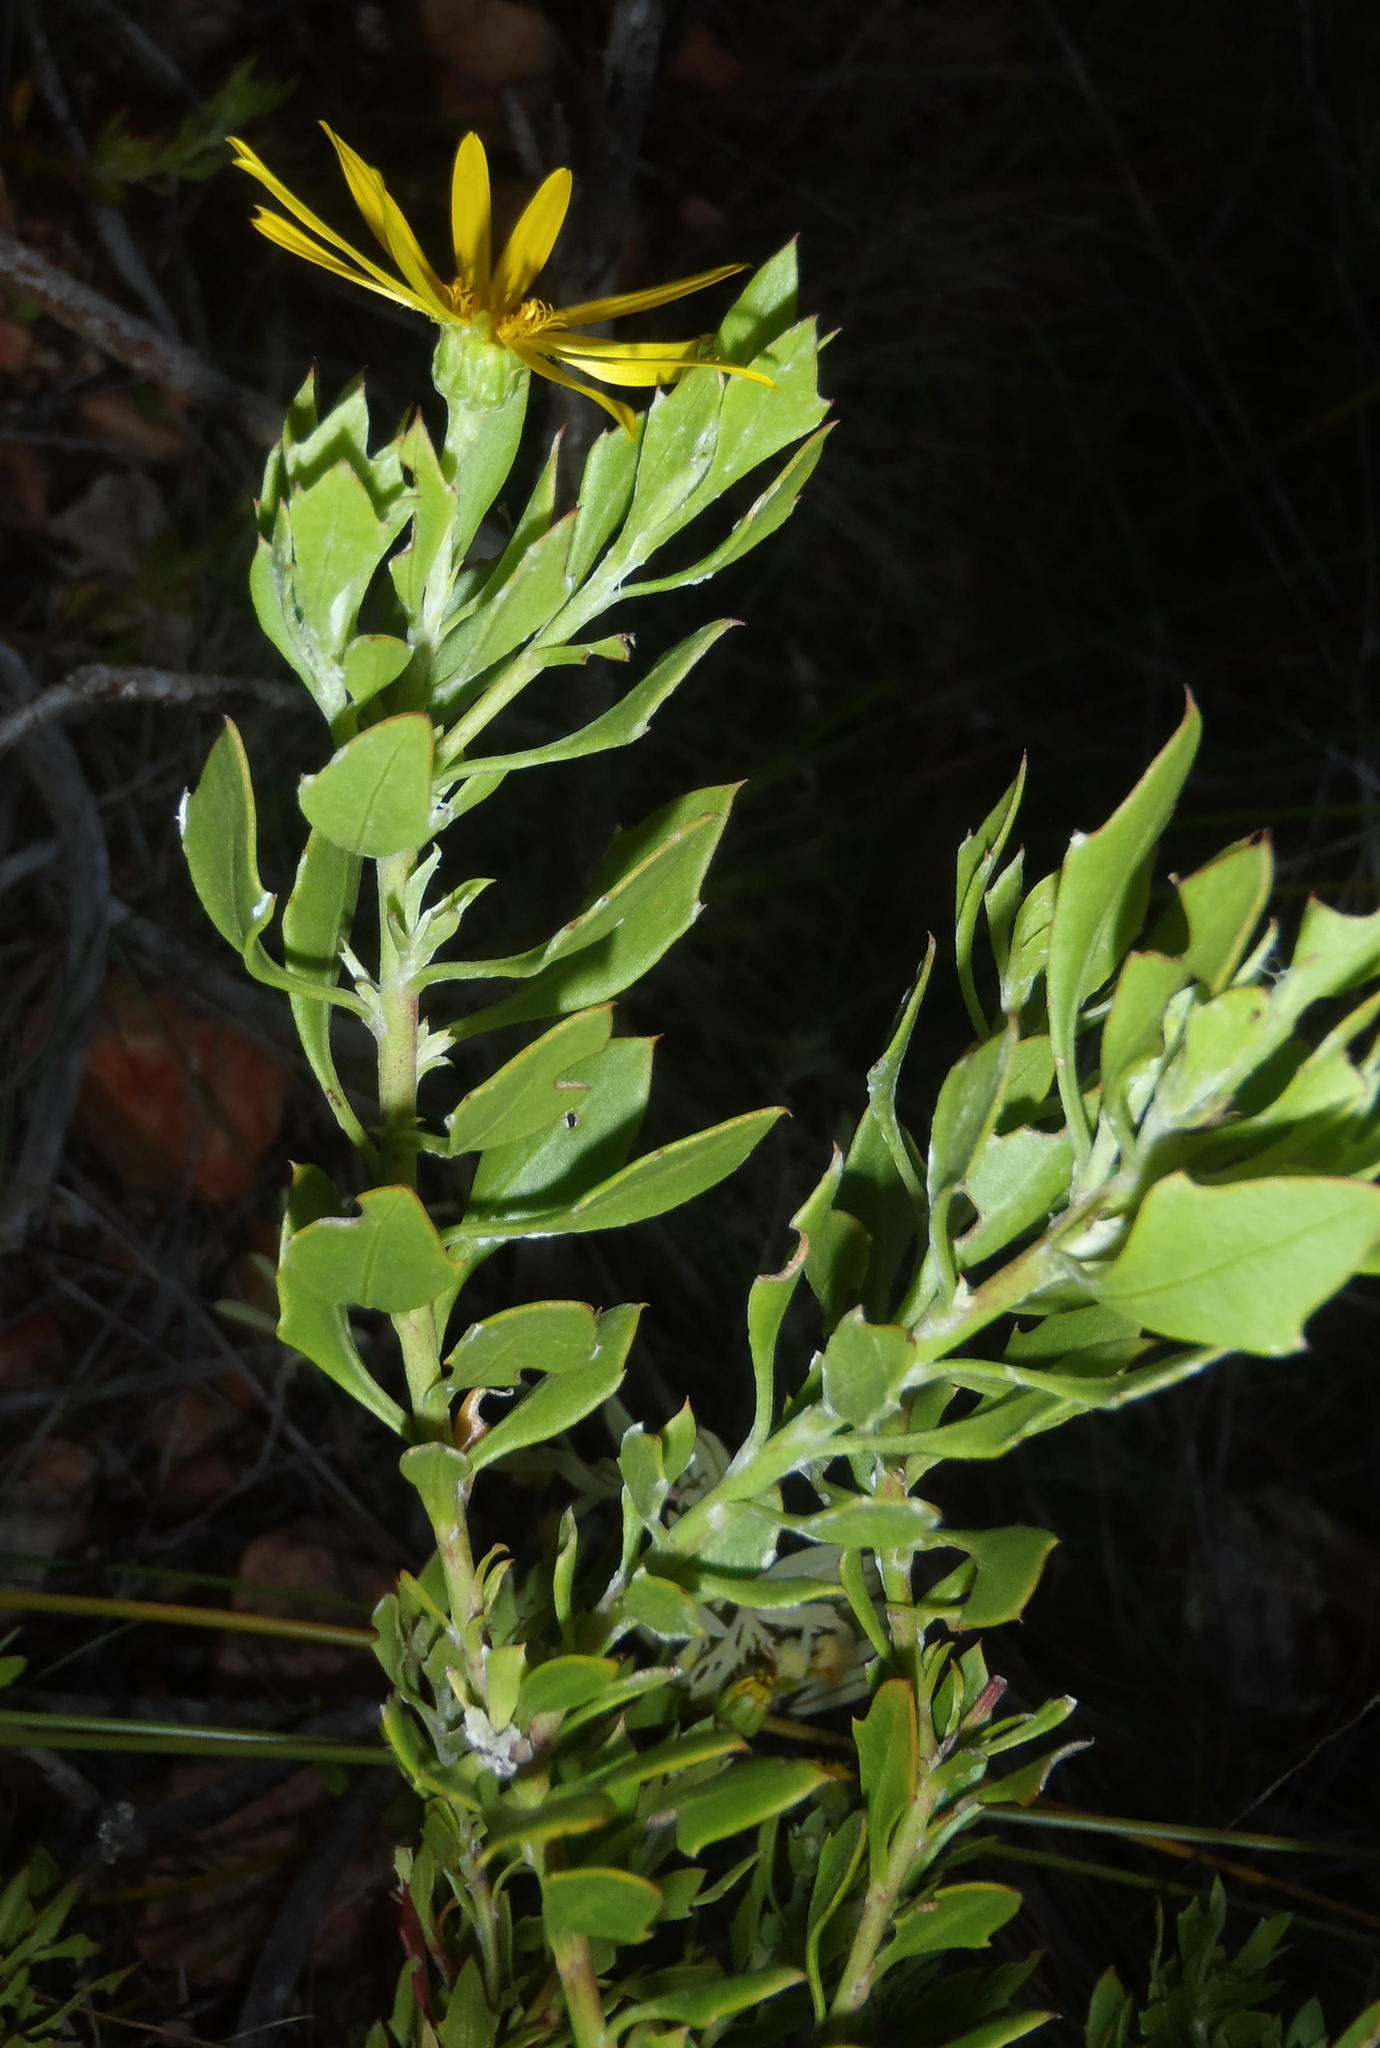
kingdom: Plantae
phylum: Tracheophyta
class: Magnoliopsida
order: Asterales
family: Asteraceae
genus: Osteospermum
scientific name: Osteospermum moniliferum
